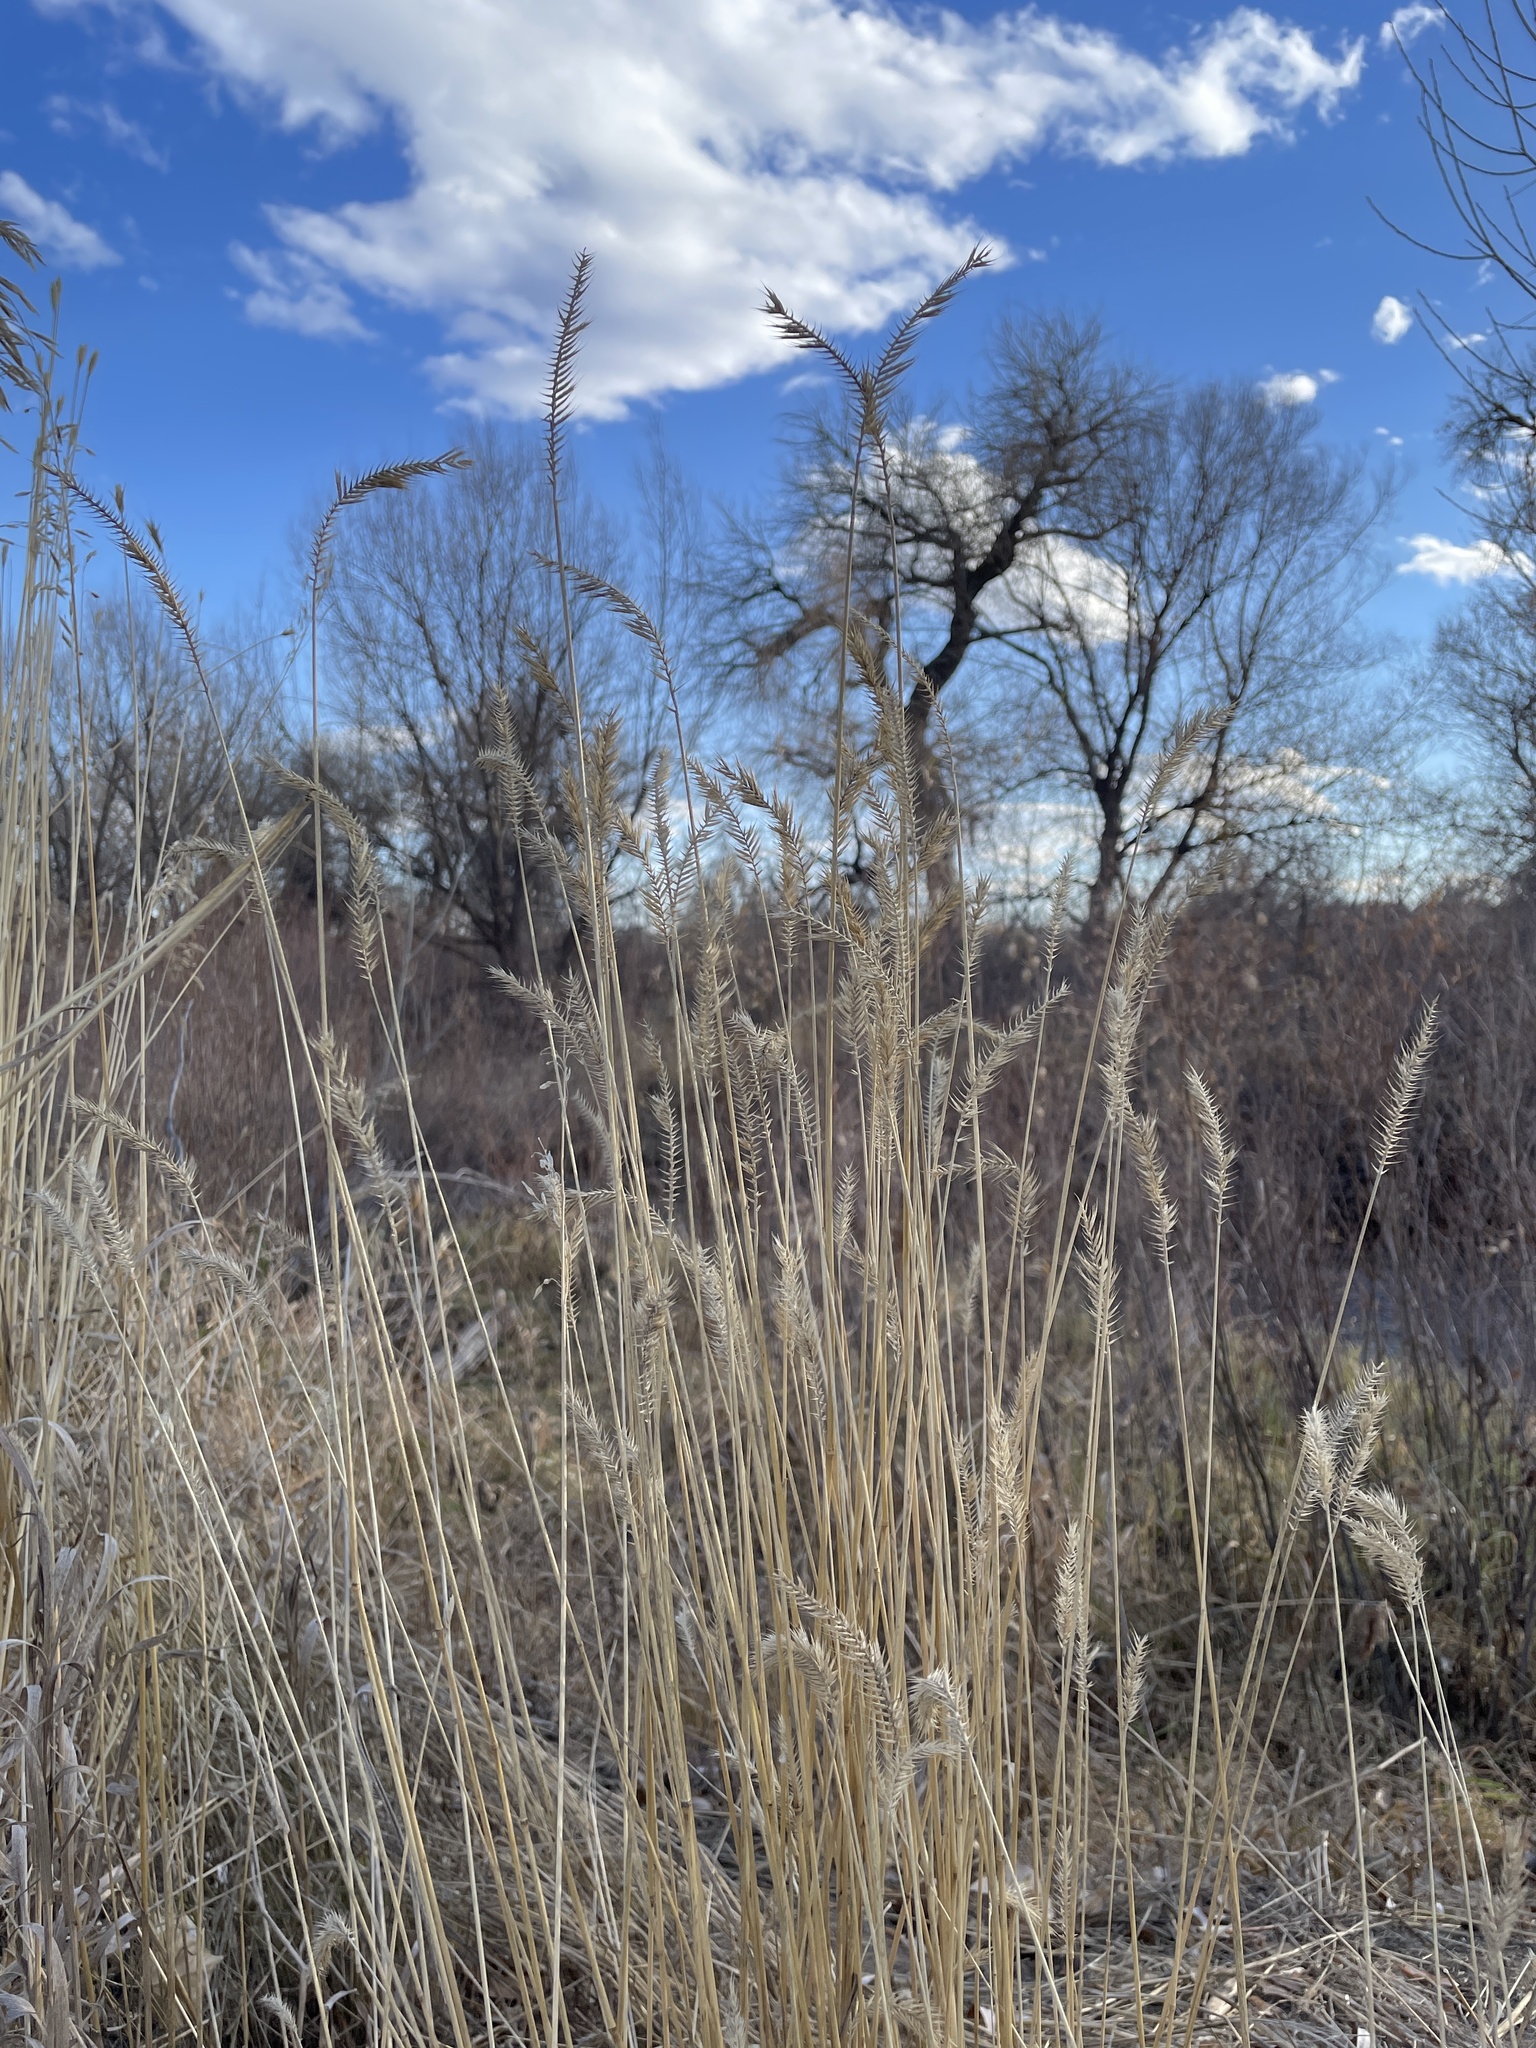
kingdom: Plantae
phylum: Tracheophyta
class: Liliopsida
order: Poales
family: Poaceae
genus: Agropyron
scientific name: Agropyron cristatum
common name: Crested wheatgrass
